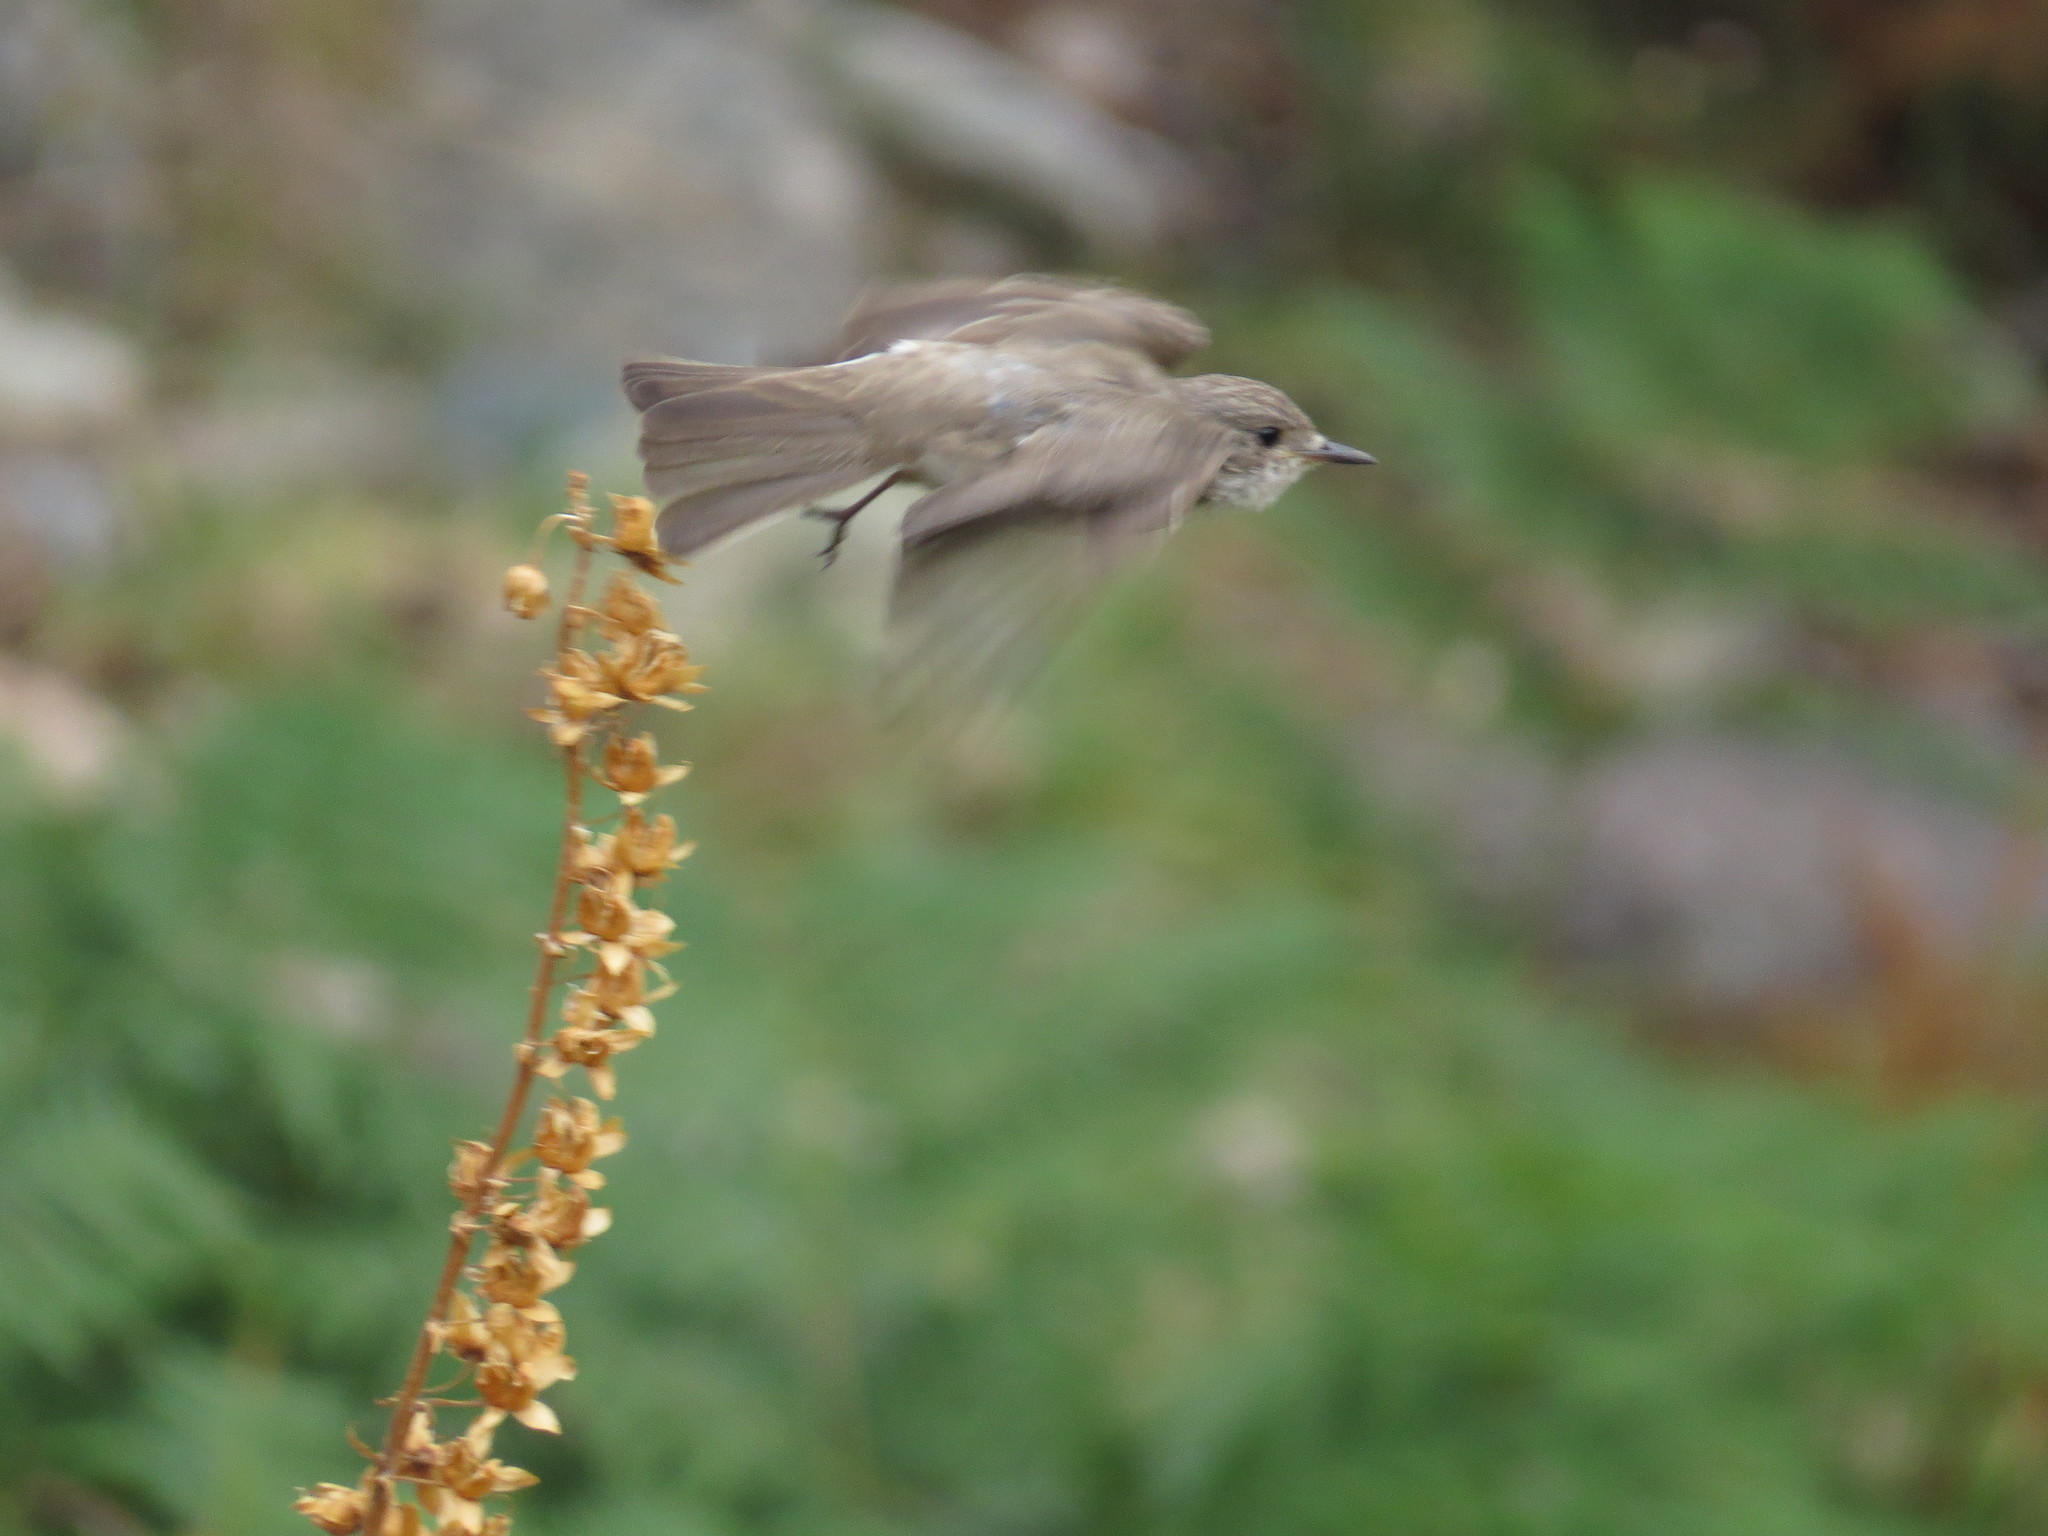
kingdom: Animalia
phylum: Chordata
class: Aves
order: Passeriformes
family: Muscicapidae
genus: Muscicapa
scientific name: Muscicapa striata
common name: Spotted flycatcher
